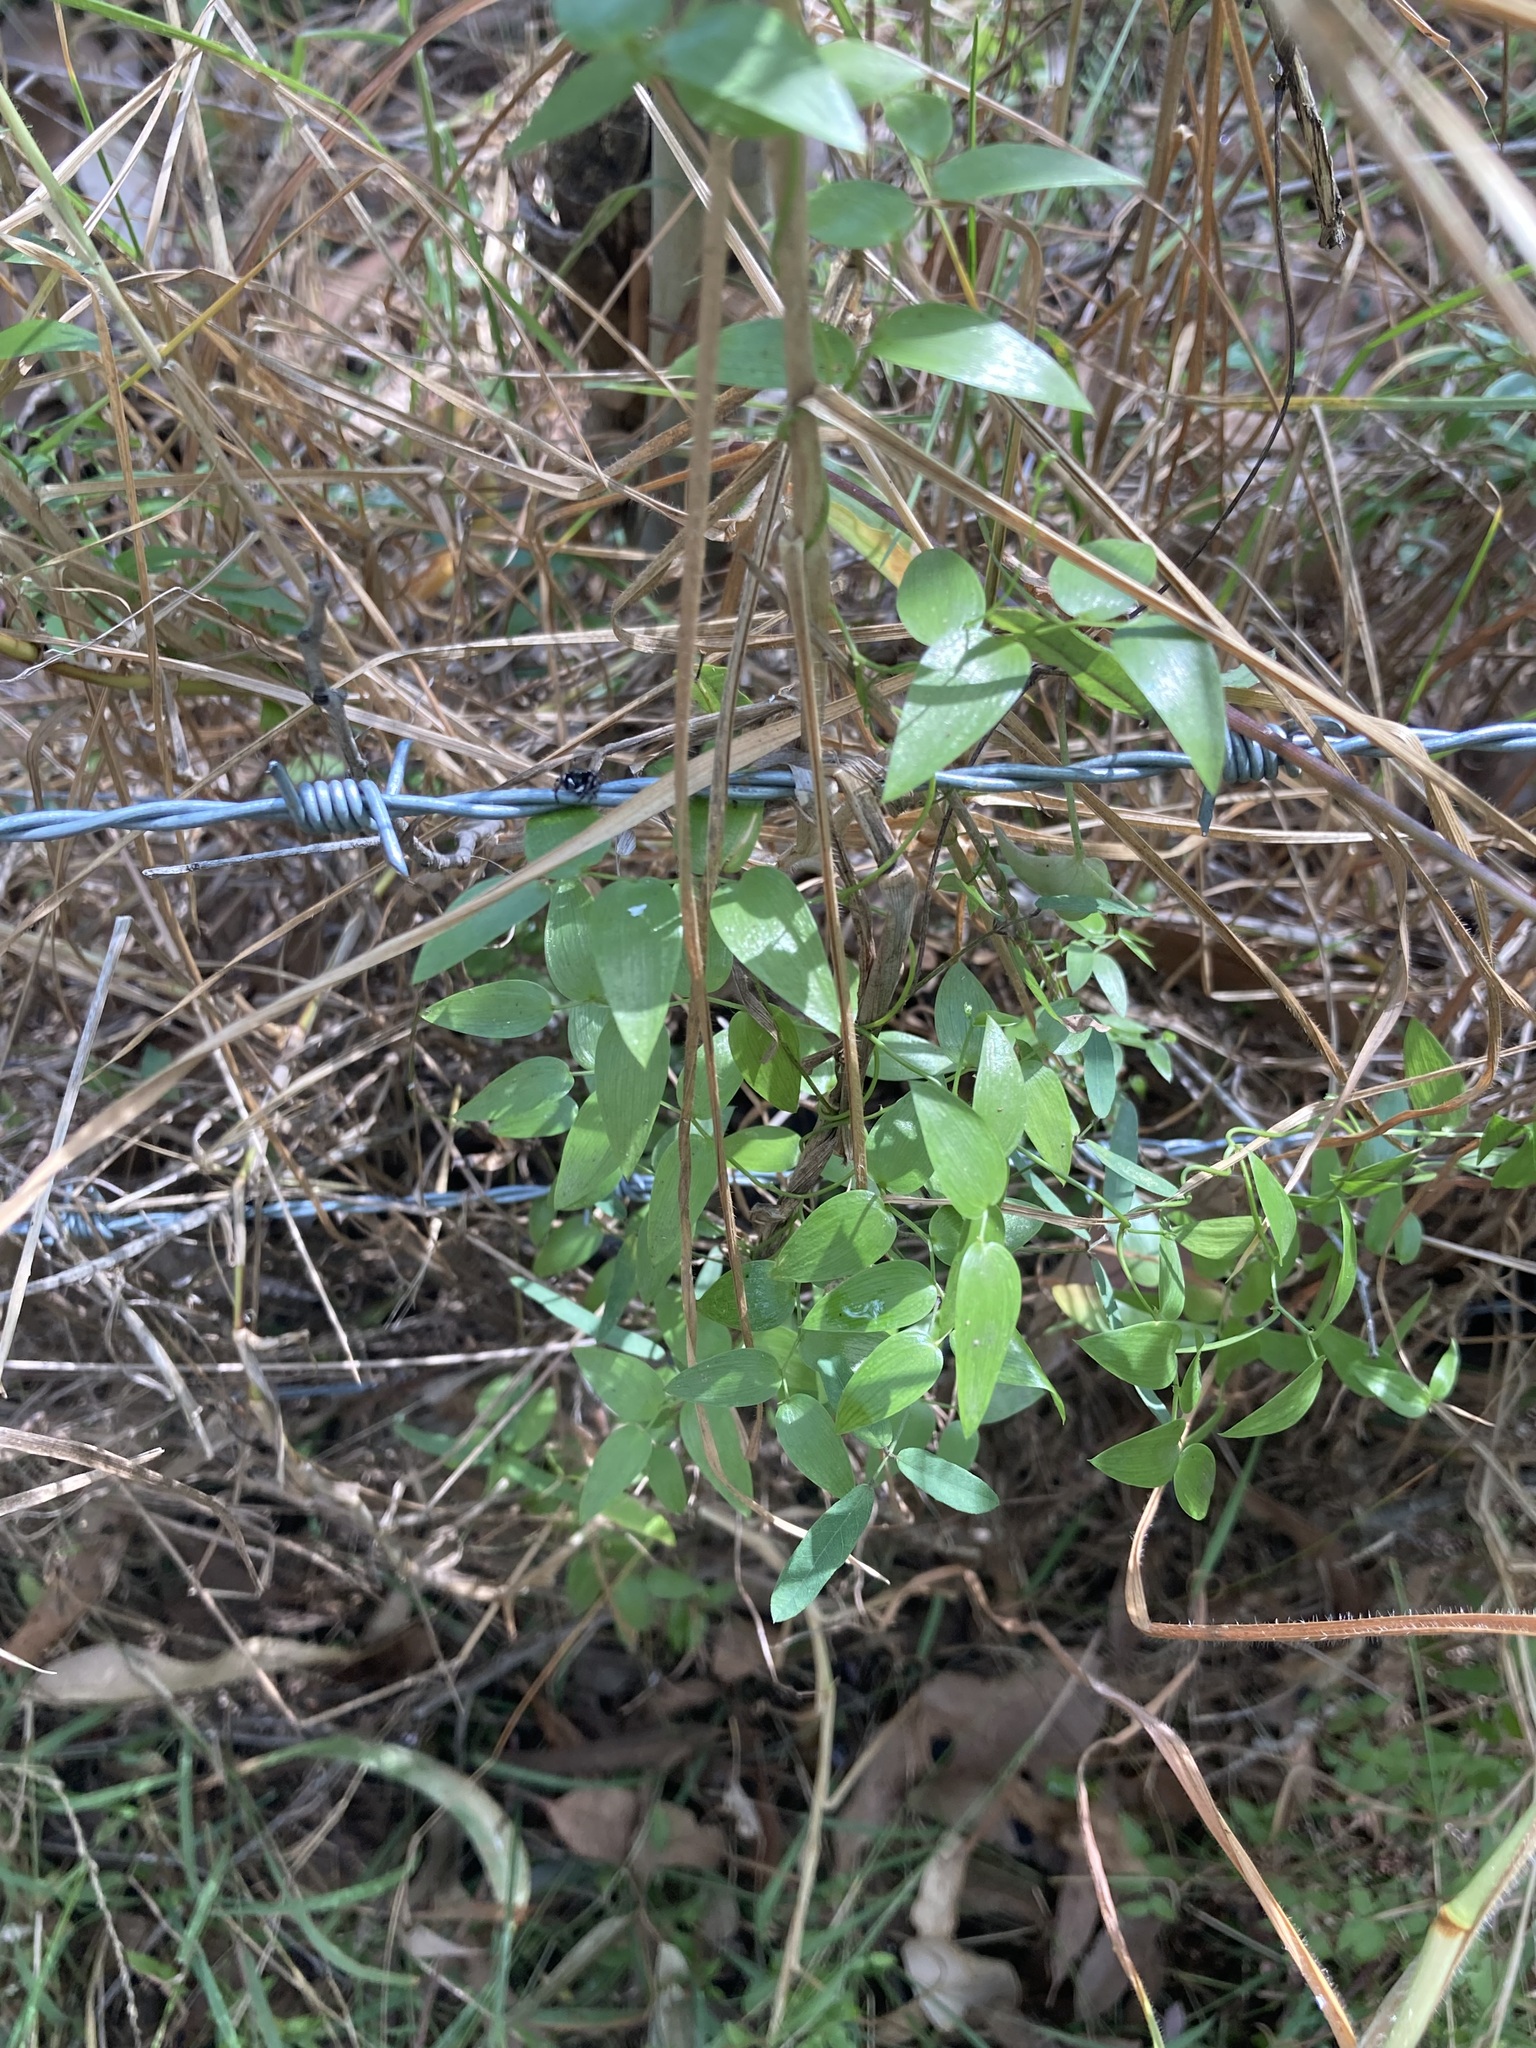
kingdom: Plantae
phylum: Tracheophyta
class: Liliopsida
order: Asparagales
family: Asparagaceae
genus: Asparagus
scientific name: Asparagus asparagoides
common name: African asparagus fern
